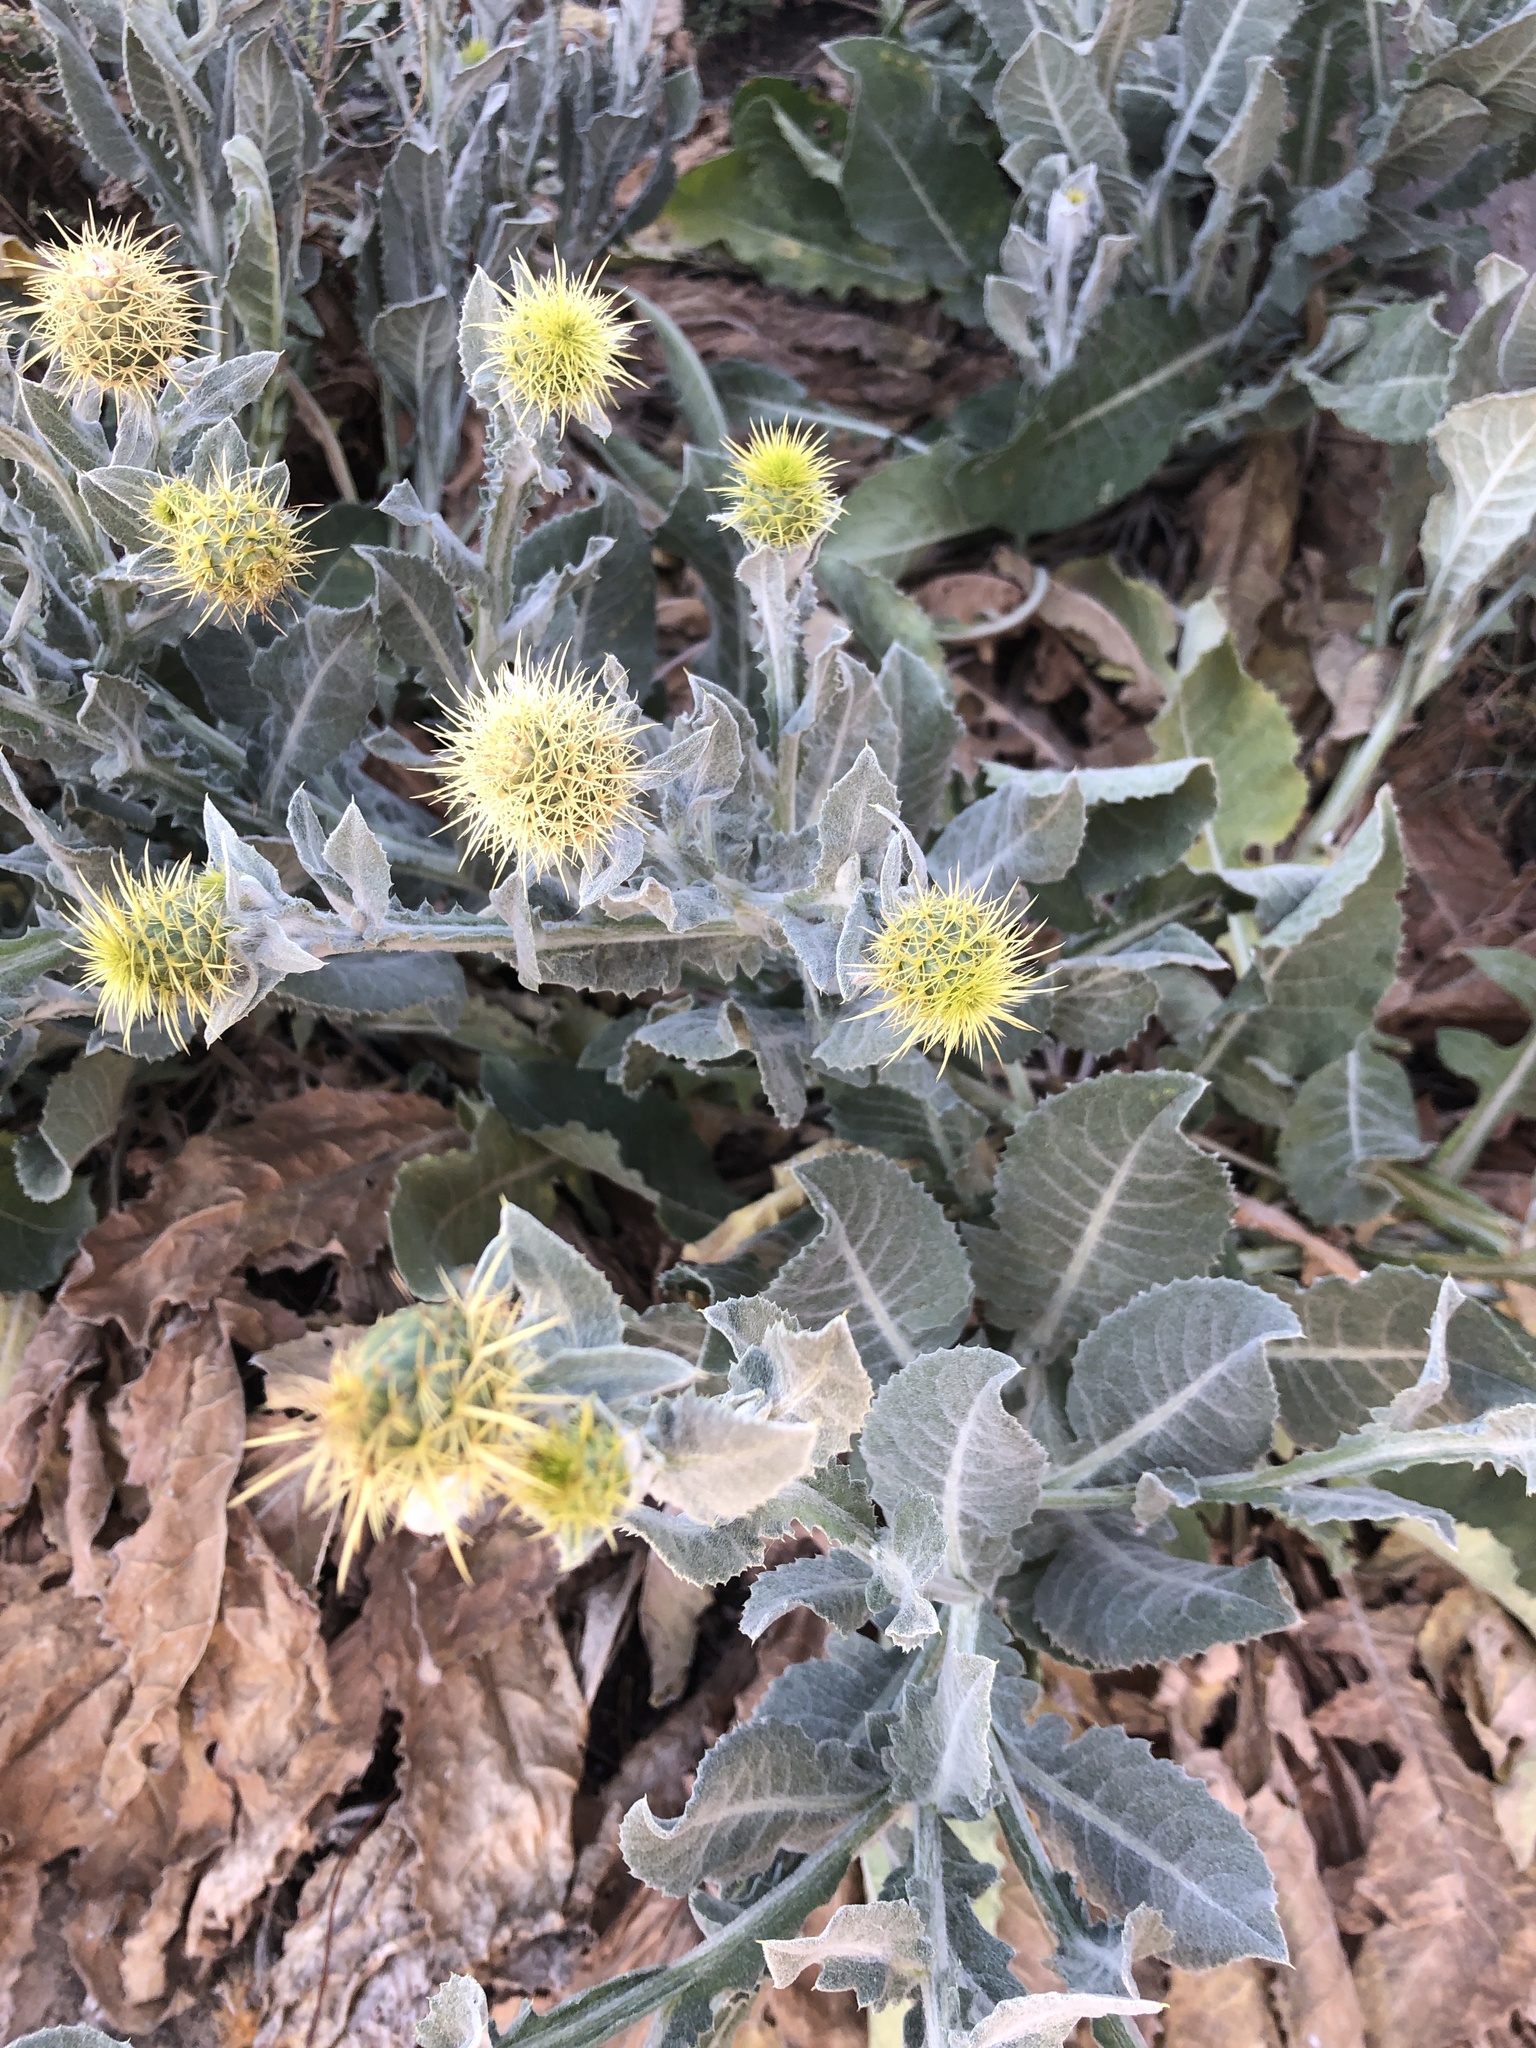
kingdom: Plantae
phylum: Tracheophyta
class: Magnoliopsida
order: Asterales
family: Asteraceae
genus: Centaurea
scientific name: Centaurea seridis
